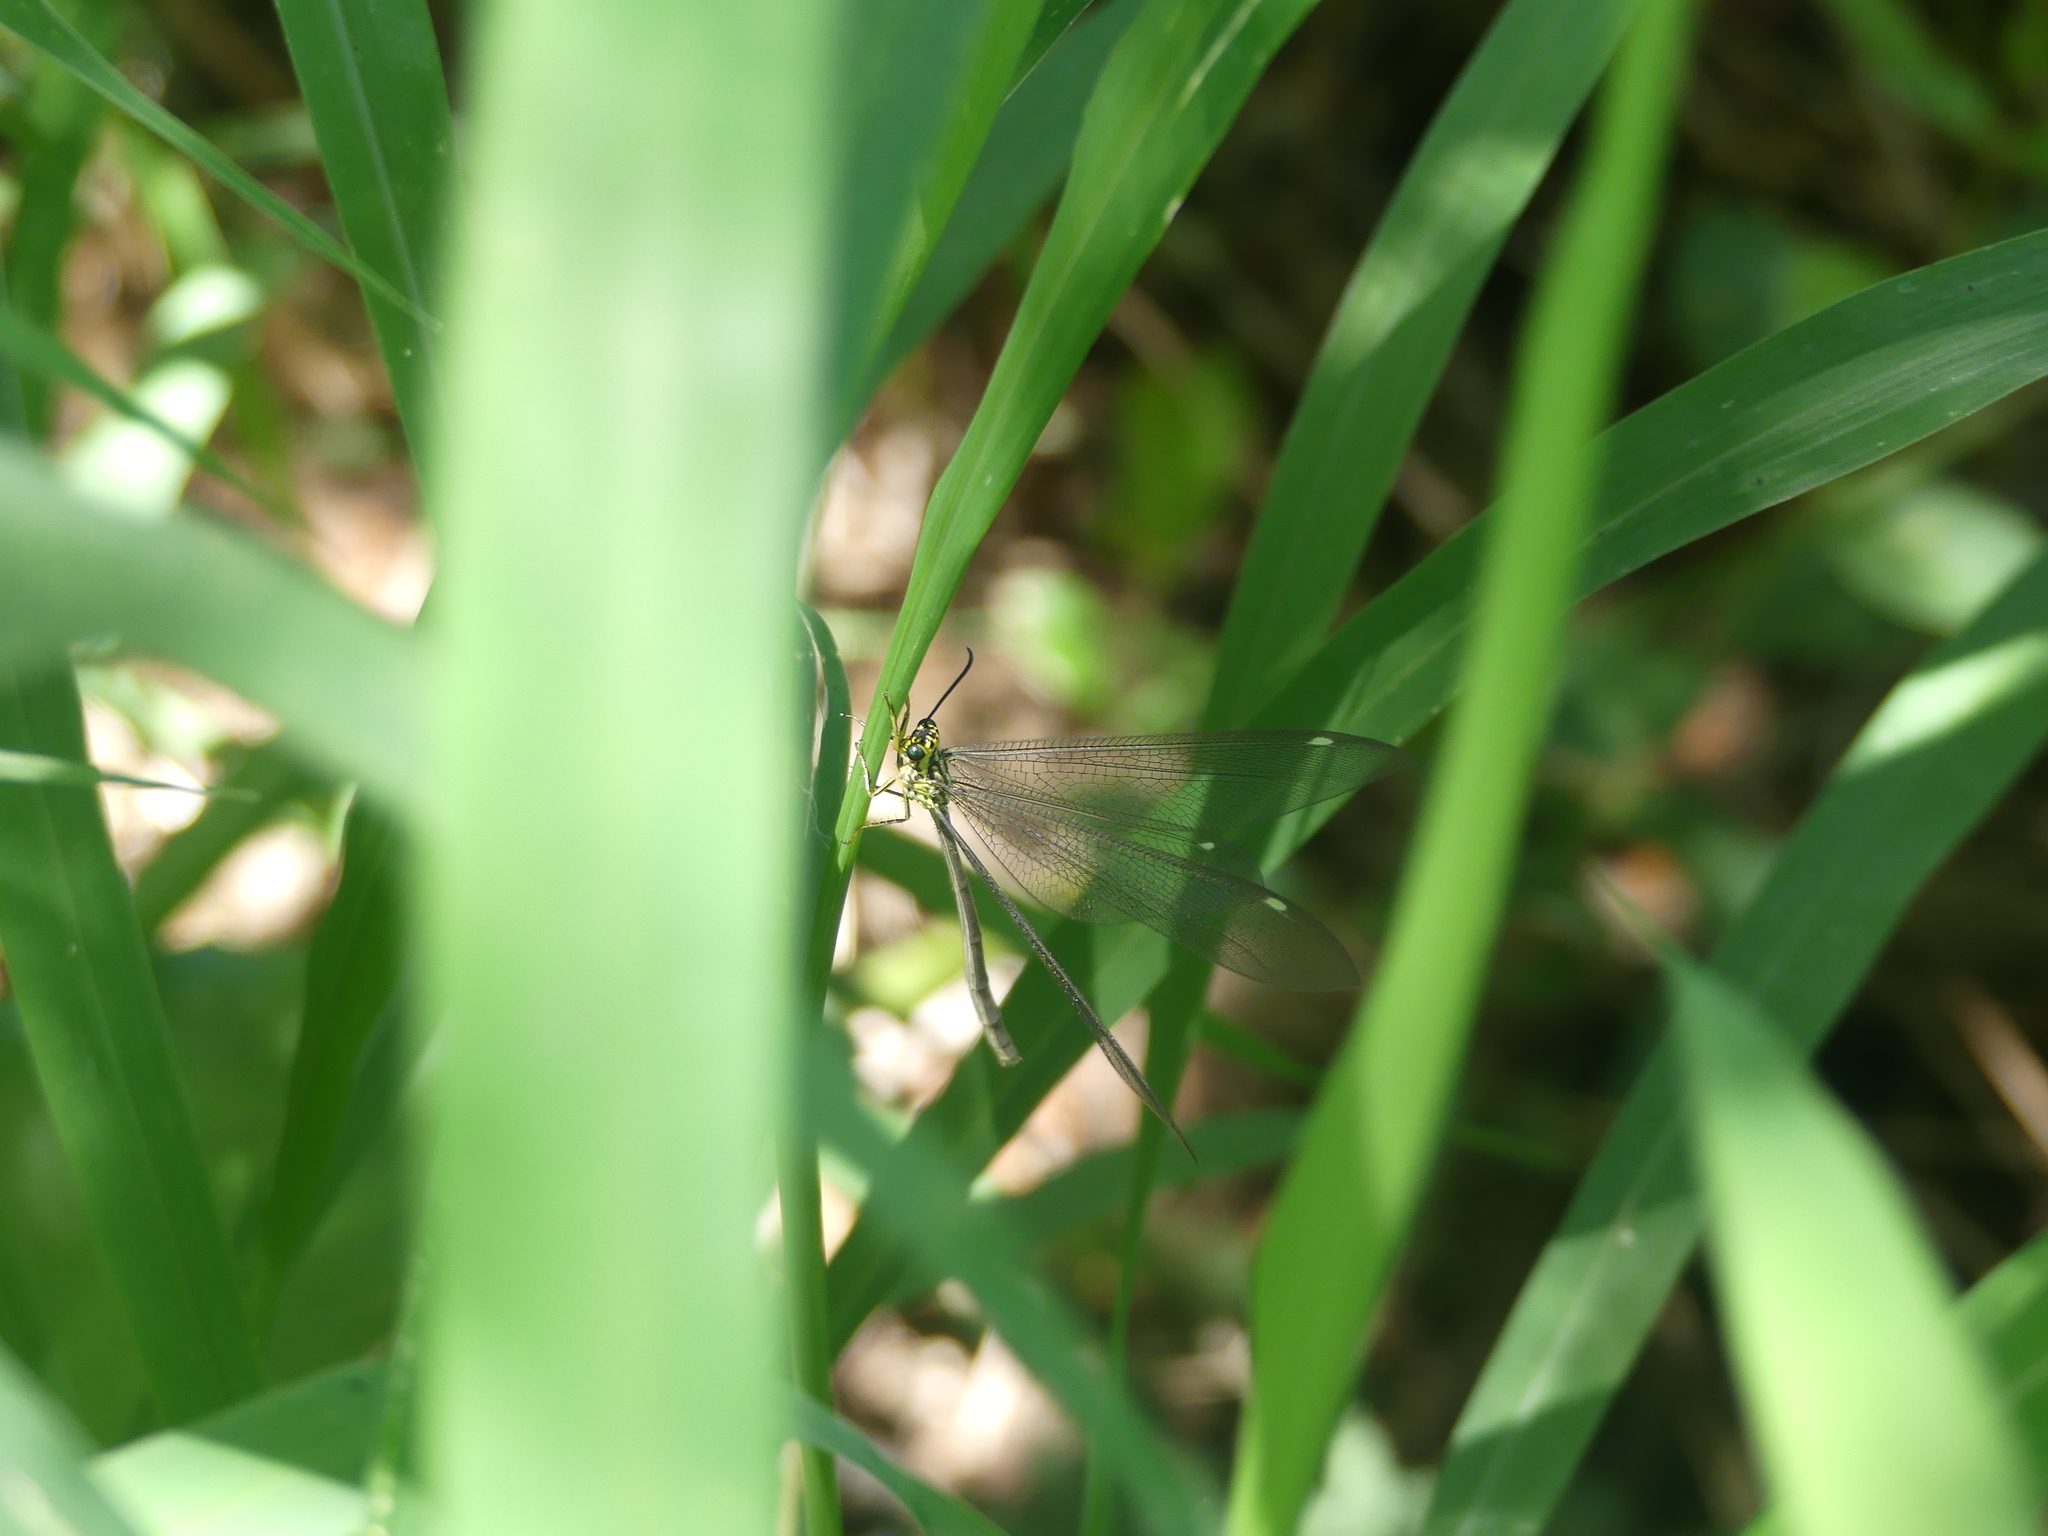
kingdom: Animalia
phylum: Arthropoda
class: Insecta
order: Neuroptera
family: Myrmeleontidae
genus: Hagenomyia
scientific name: Hagenomyia tristis
